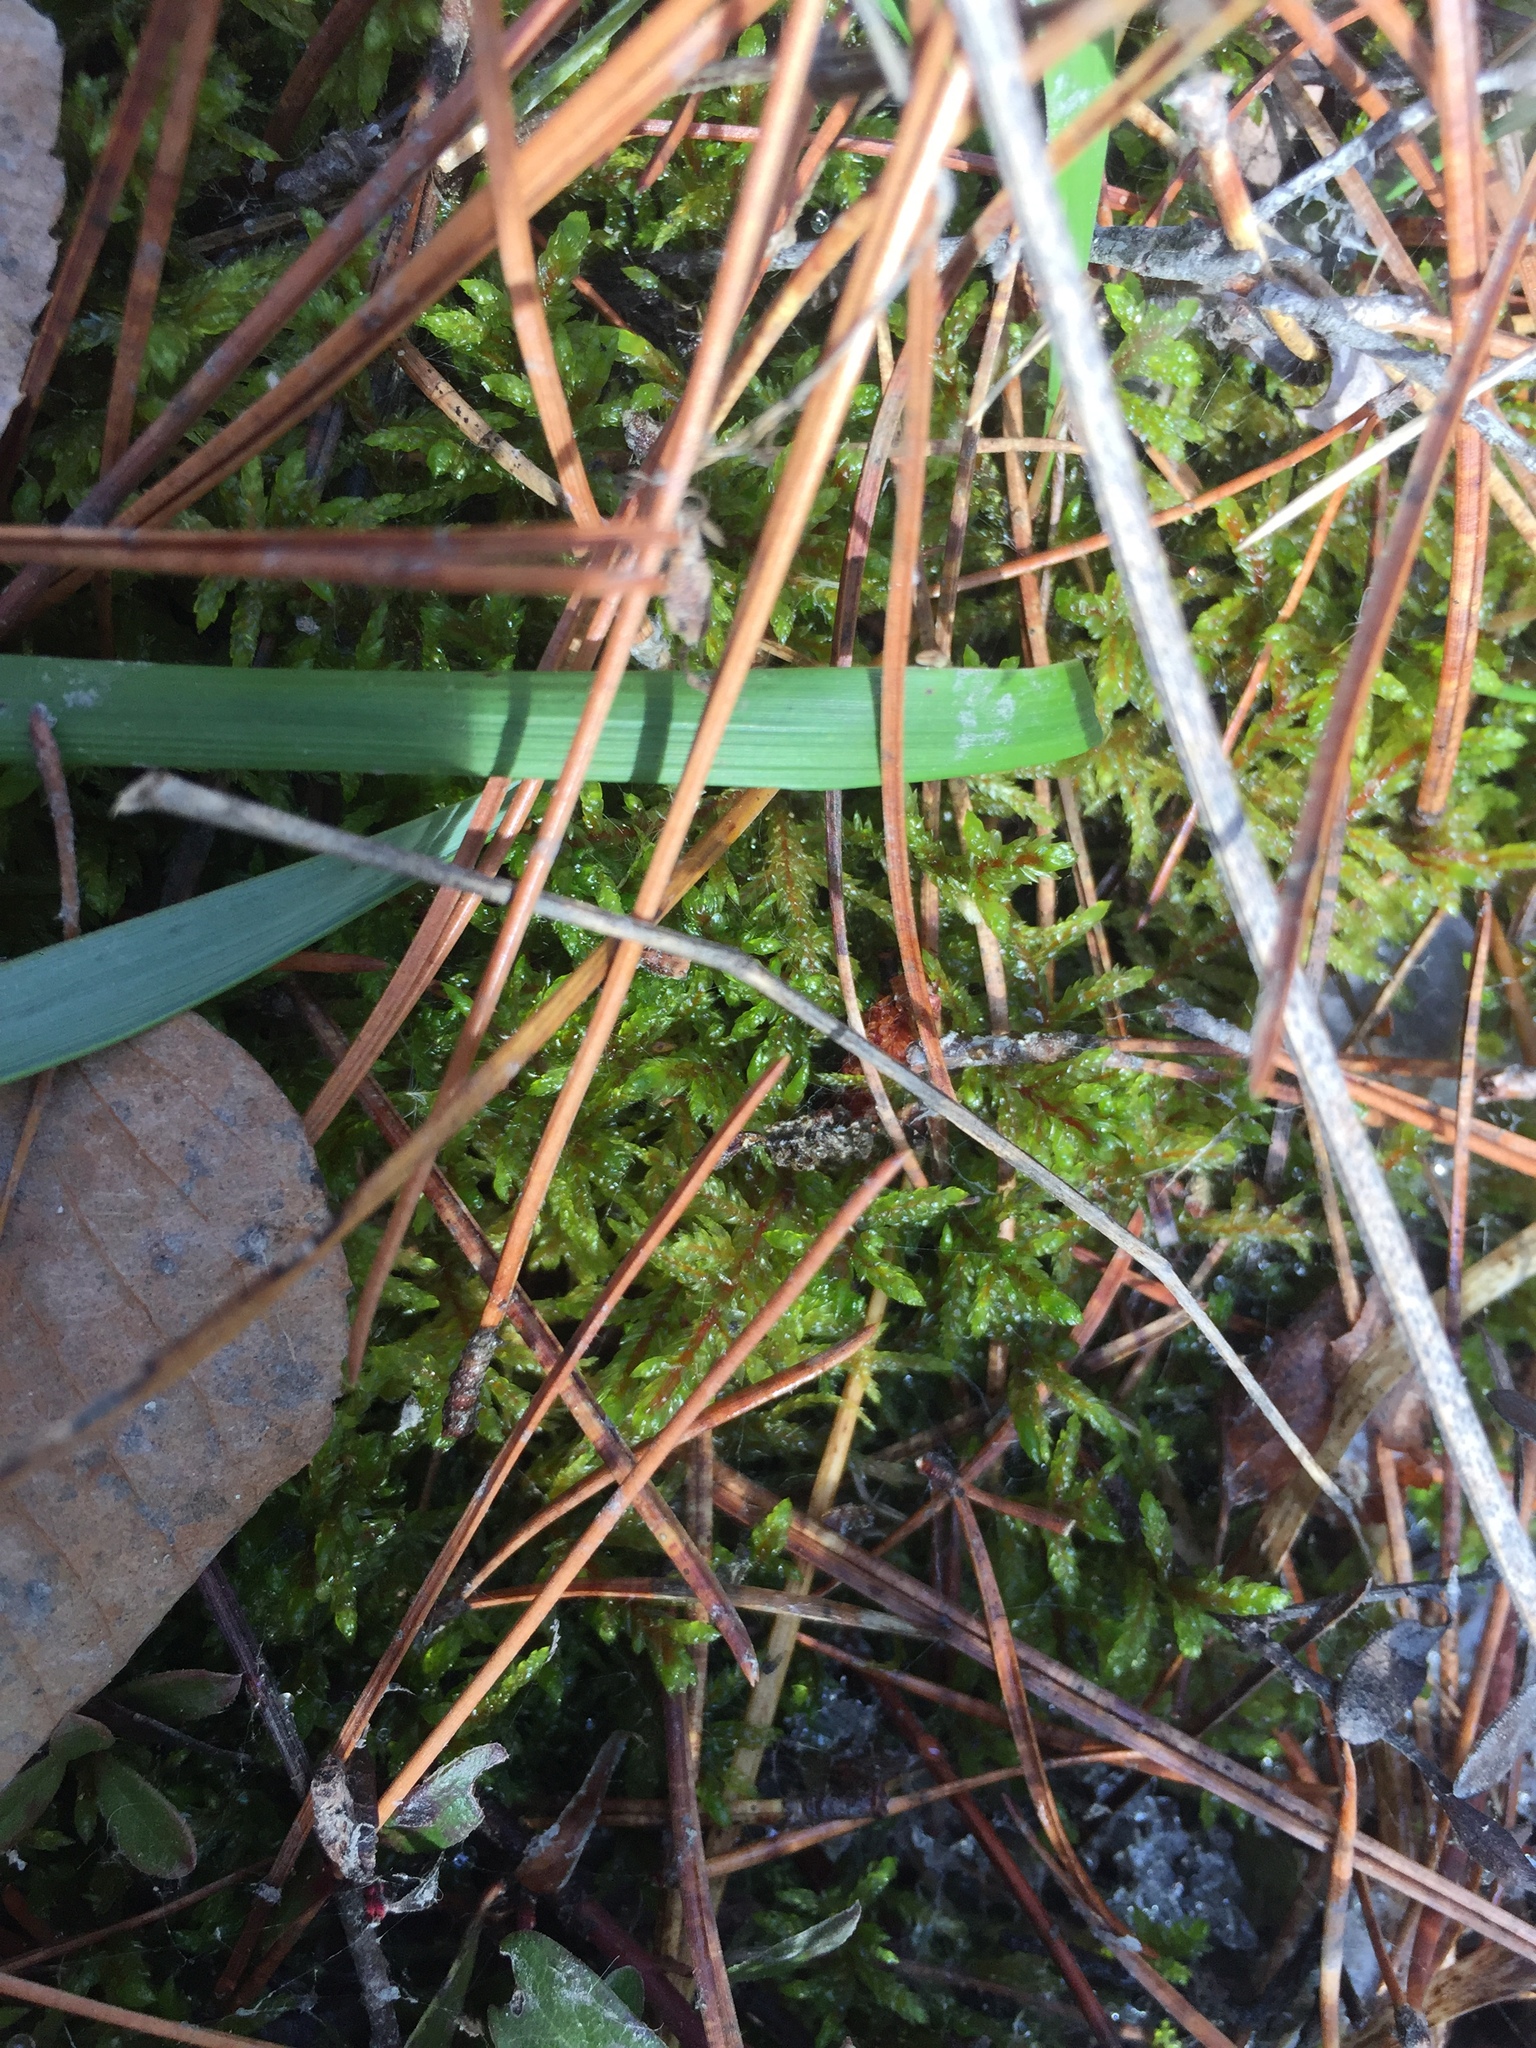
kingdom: Plantae
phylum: Bryophyta
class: Bryopsida
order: Hypnales
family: Hylocomiaceae
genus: Pleurozium
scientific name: Pleurozium schreberi
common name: Red-stemmed feather moss
